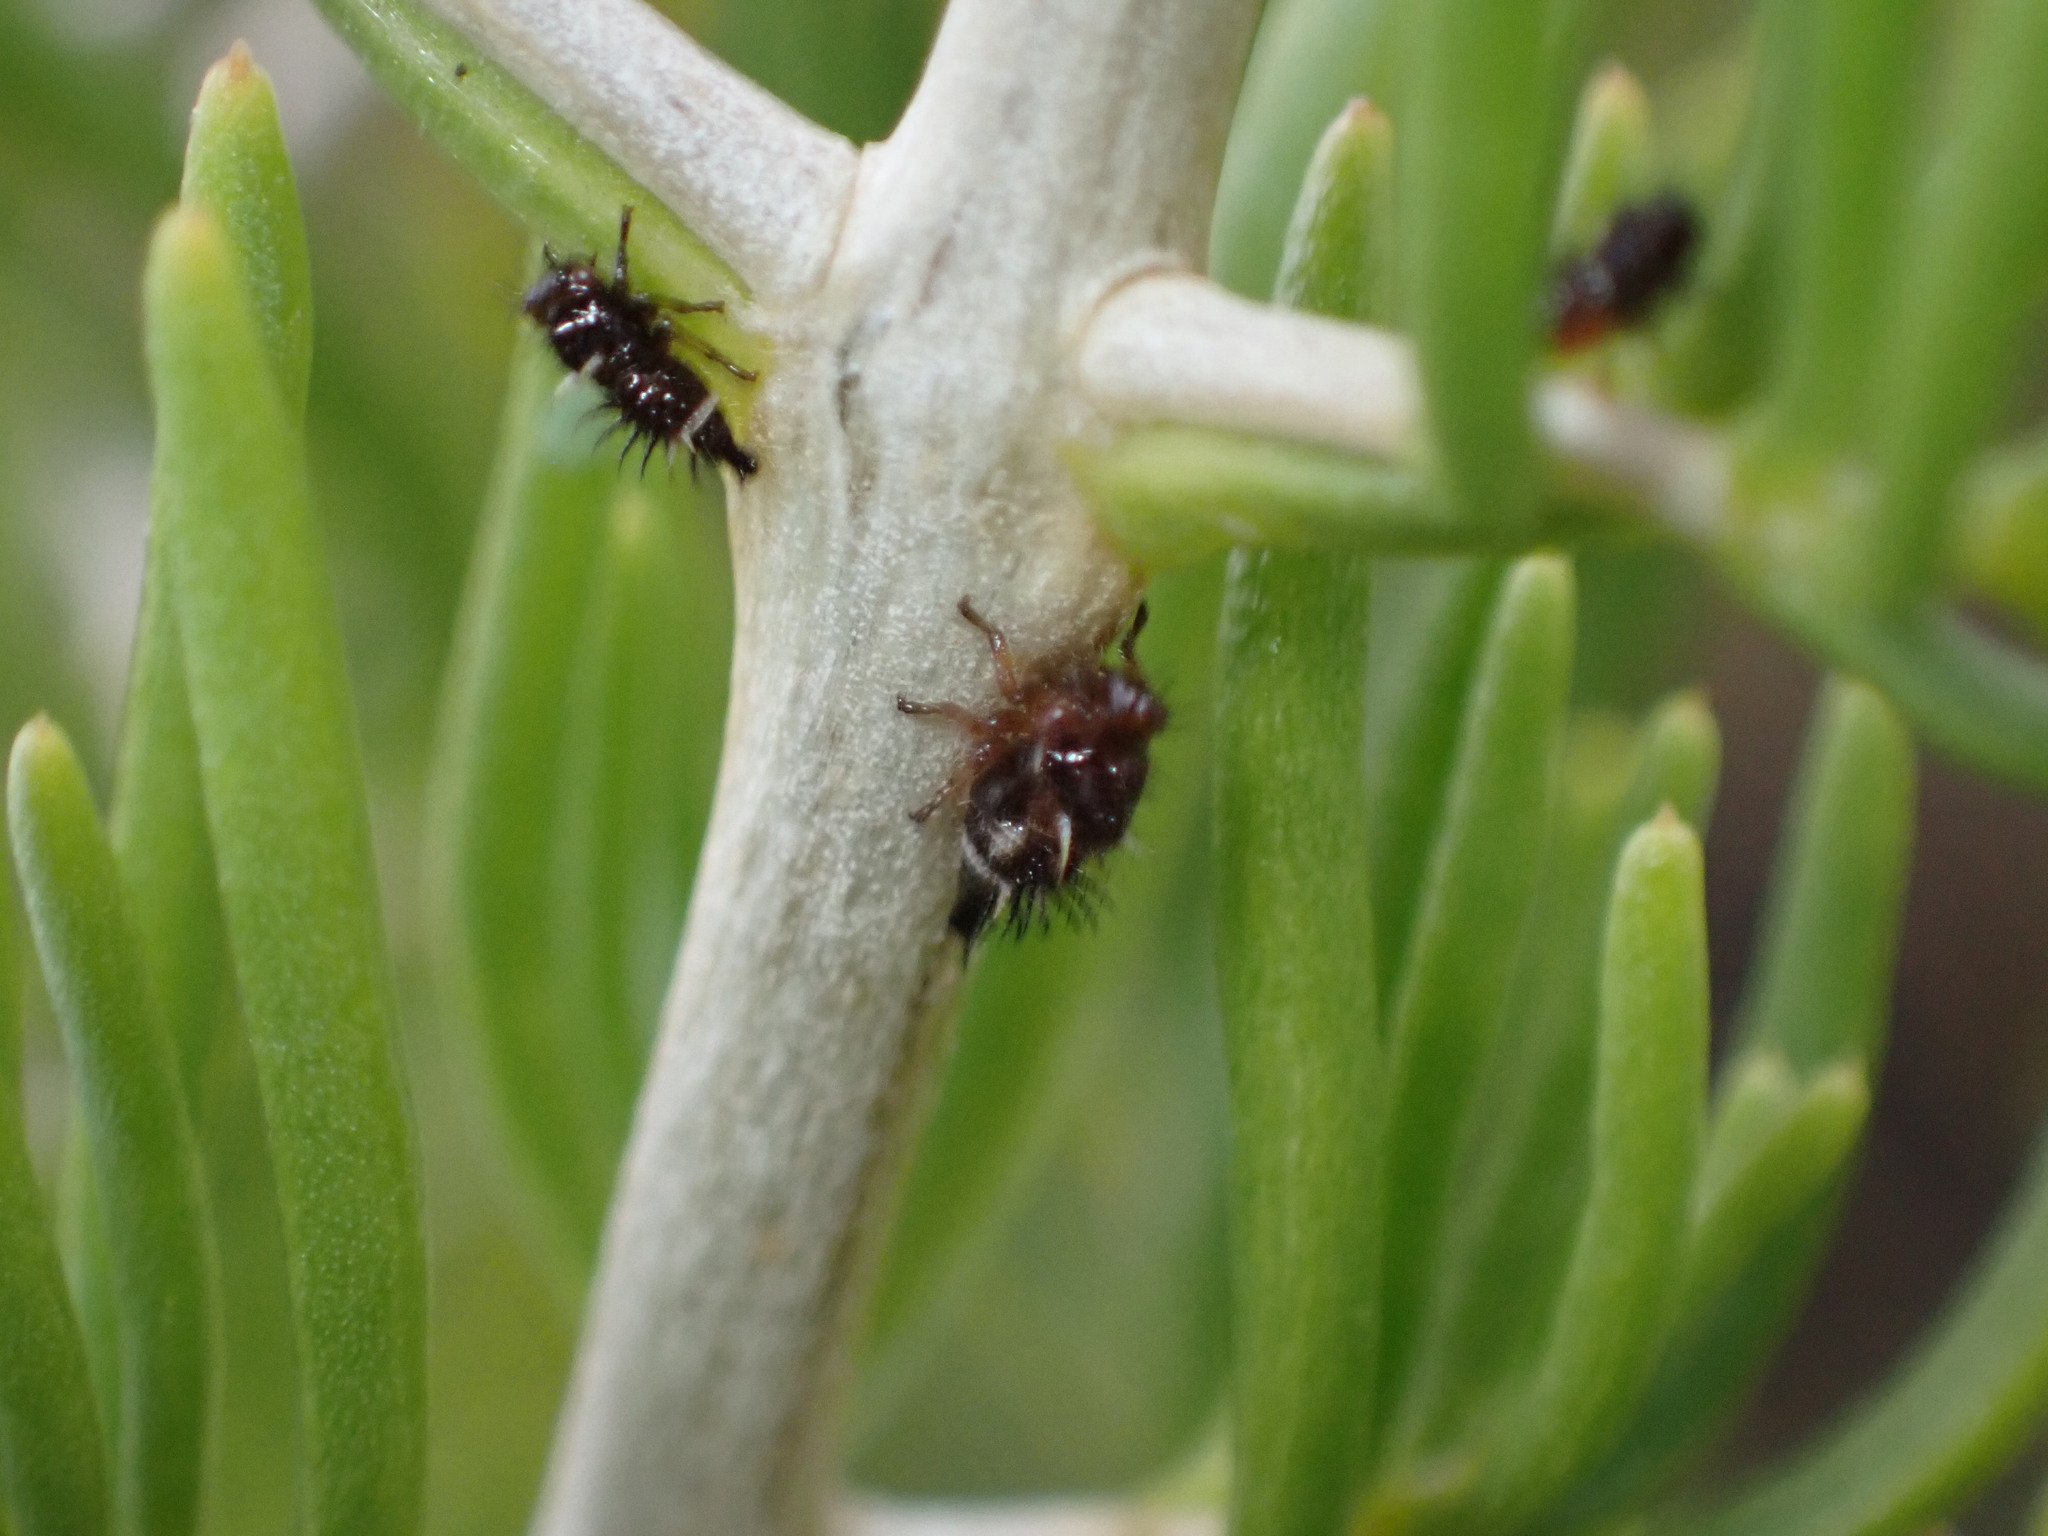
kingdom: Animalia
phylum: Arthropoda
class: Insecta
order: Hemiptera
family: Membracidae
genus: Publilia
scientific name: Publilia modesta
